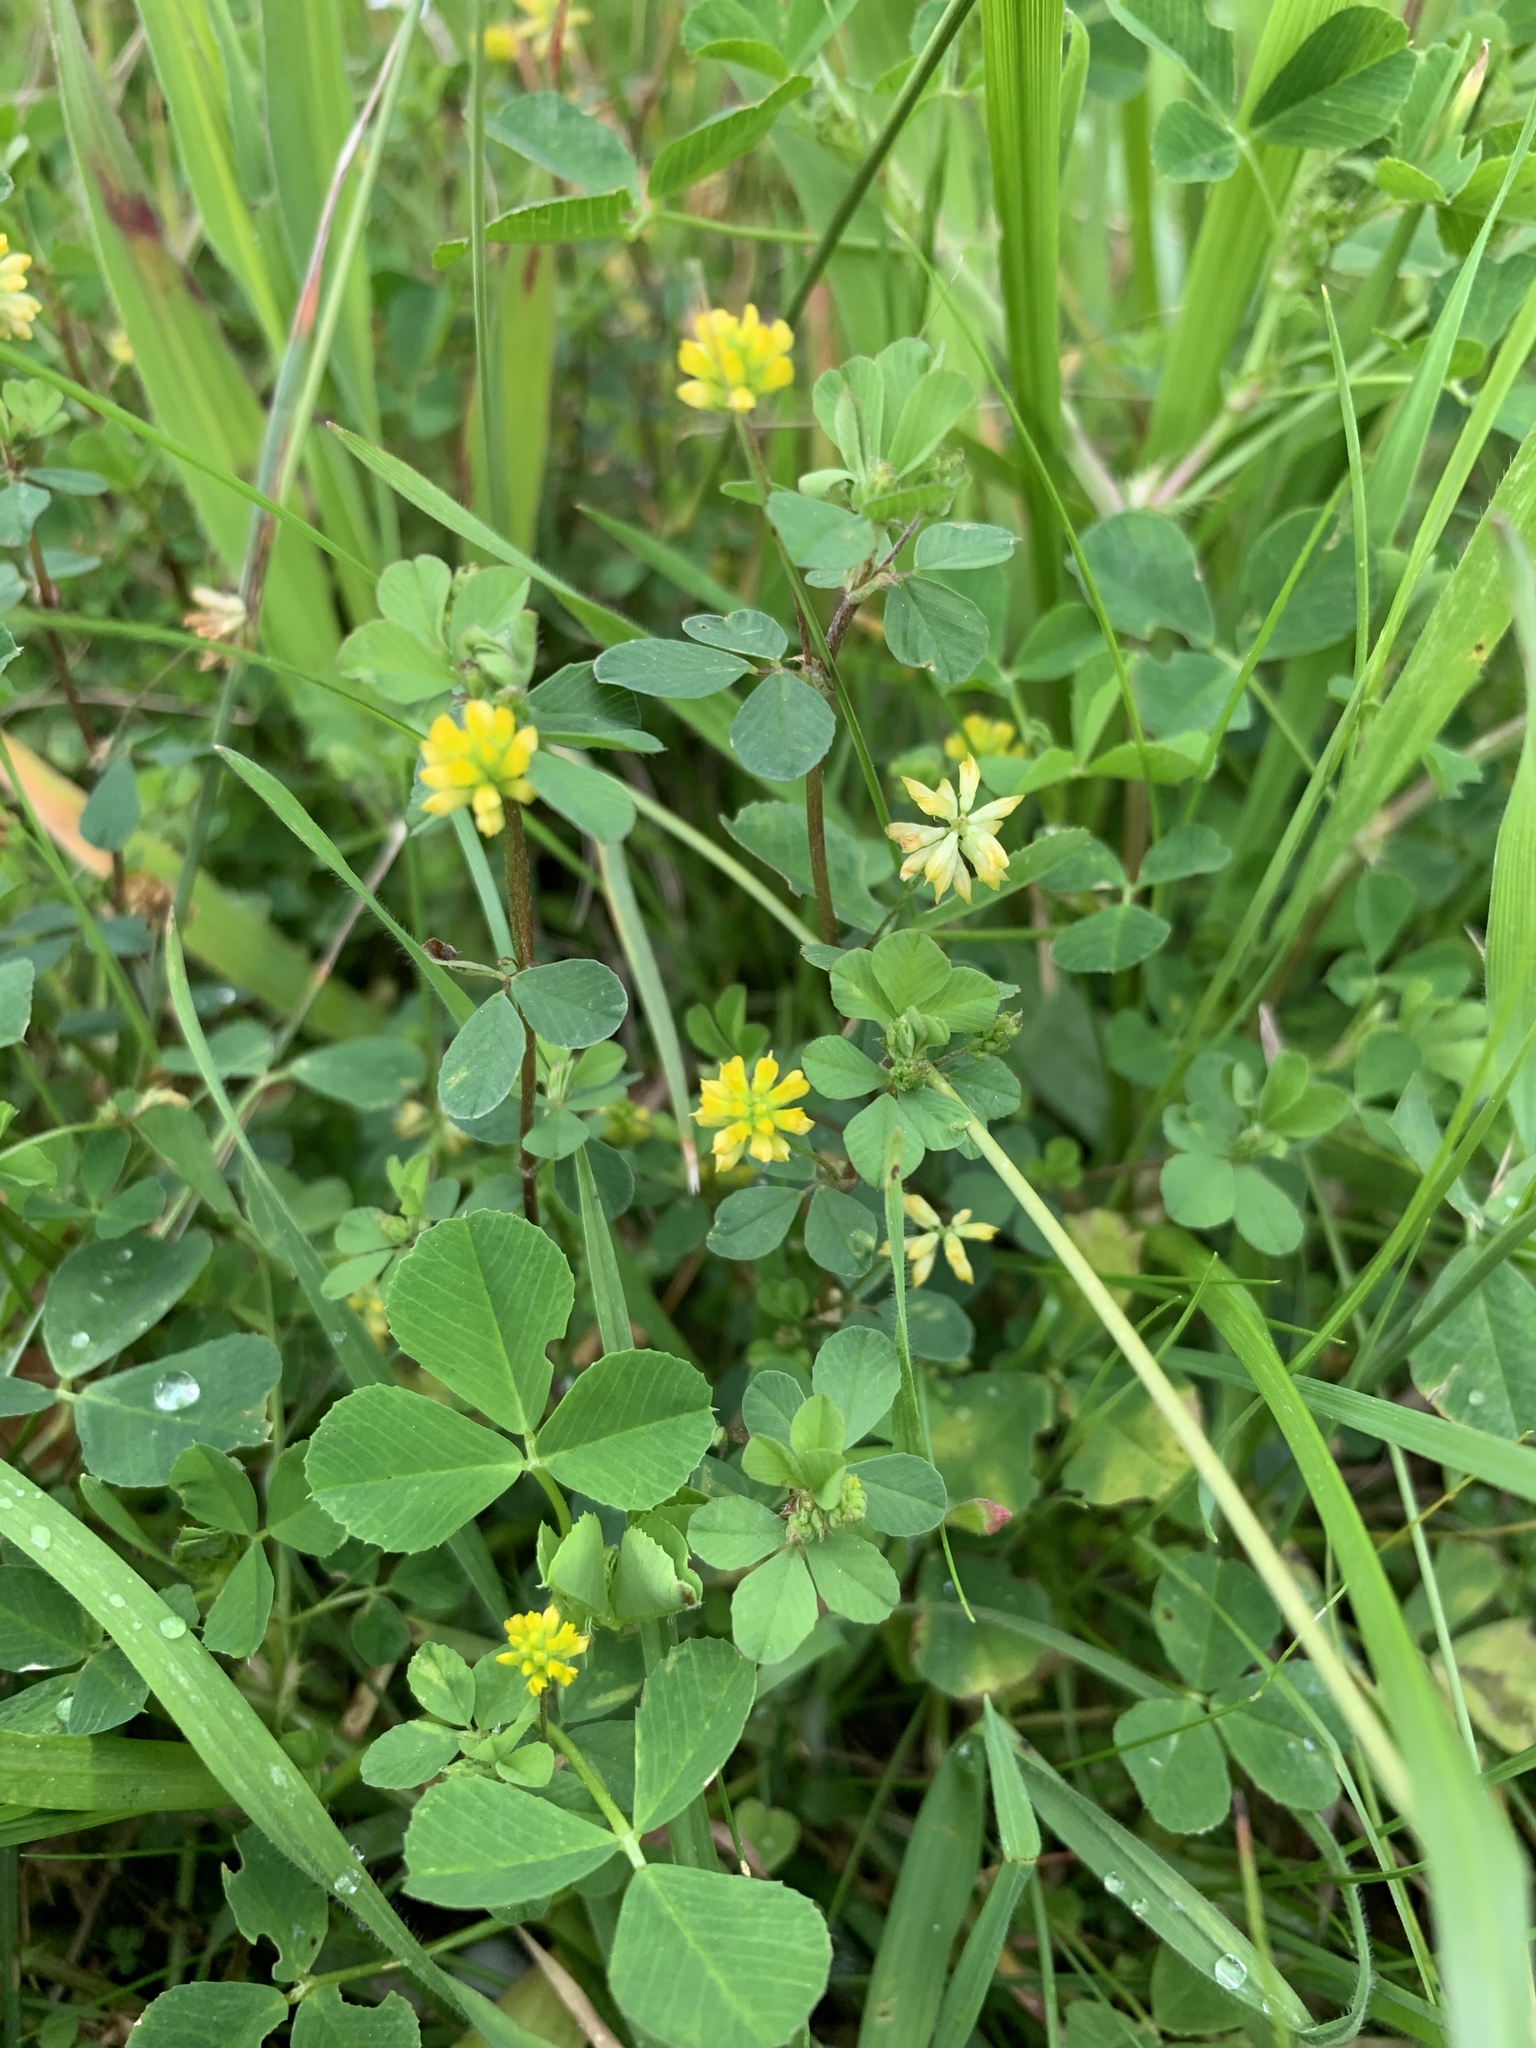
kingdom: Plantae
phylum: Tracheophyta
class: Magnoliopsida
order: Fabales
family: Fabaceae
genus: Trifolium
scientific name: Trifolium dubium
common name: Suckling clover
